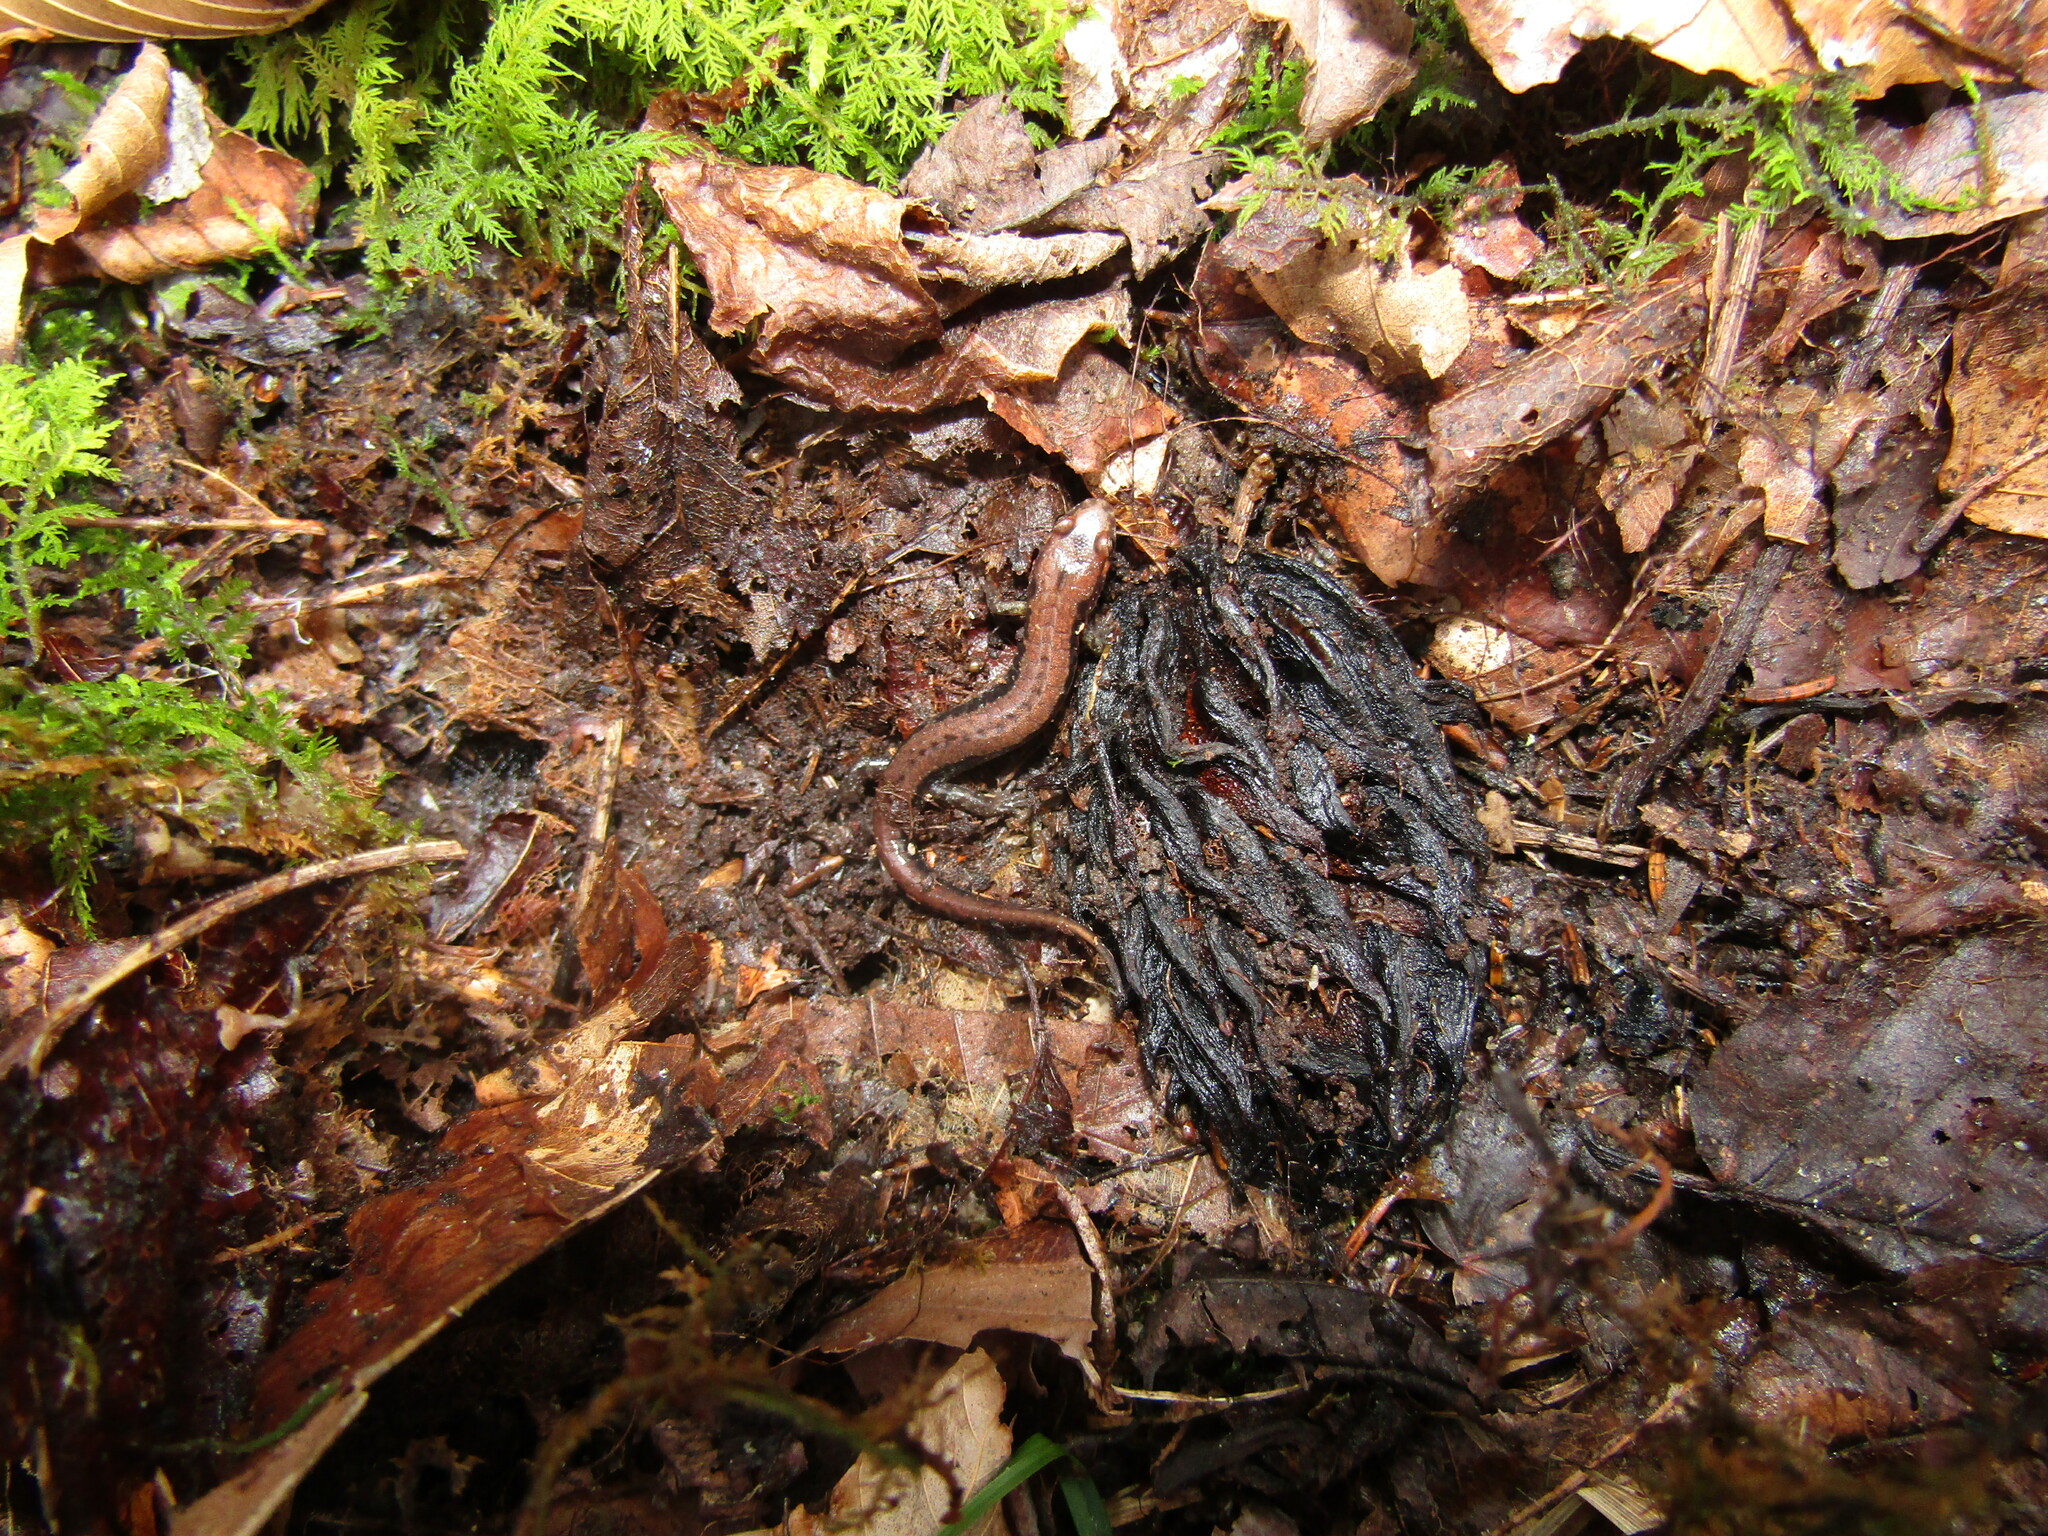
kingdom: Animalia
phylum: Chordata
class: Amphibia
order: Caudata
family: Plethodontidae
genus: Desmognathus
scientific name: Desmognathus ochrophaeus
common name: Allegheny mountain dusky salamander
